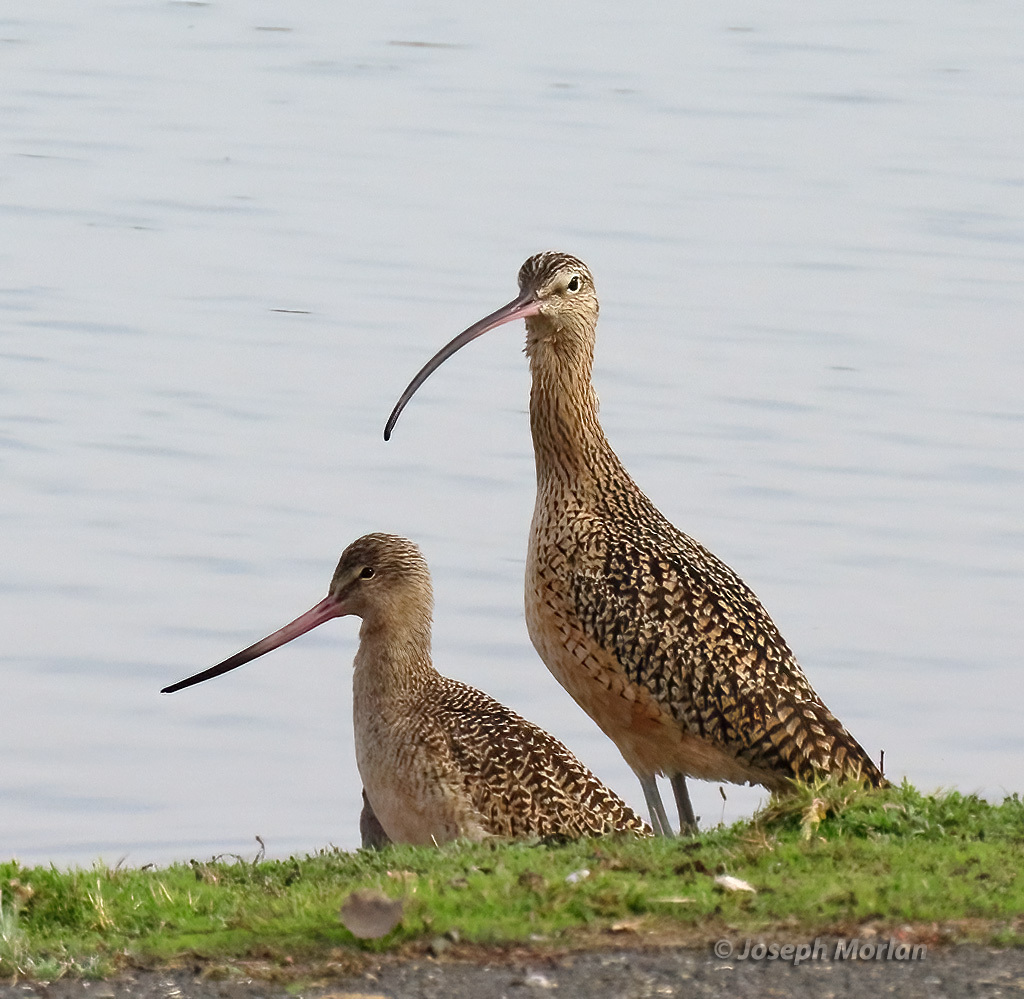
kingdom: Animalia
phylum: Chordata
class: Aves
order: Charadriiformes
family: Scolopacidae
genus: Numenius
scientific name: Numenius americanus
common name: Long-billed curlew
